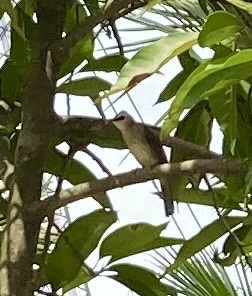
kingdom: Animalia
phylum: Chordata
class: Aves
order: Passeriformes
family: Pycnonotidae
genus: Pycnonotus
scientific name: Pycnonotus goiavier
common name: Yellow-vented bulbul
